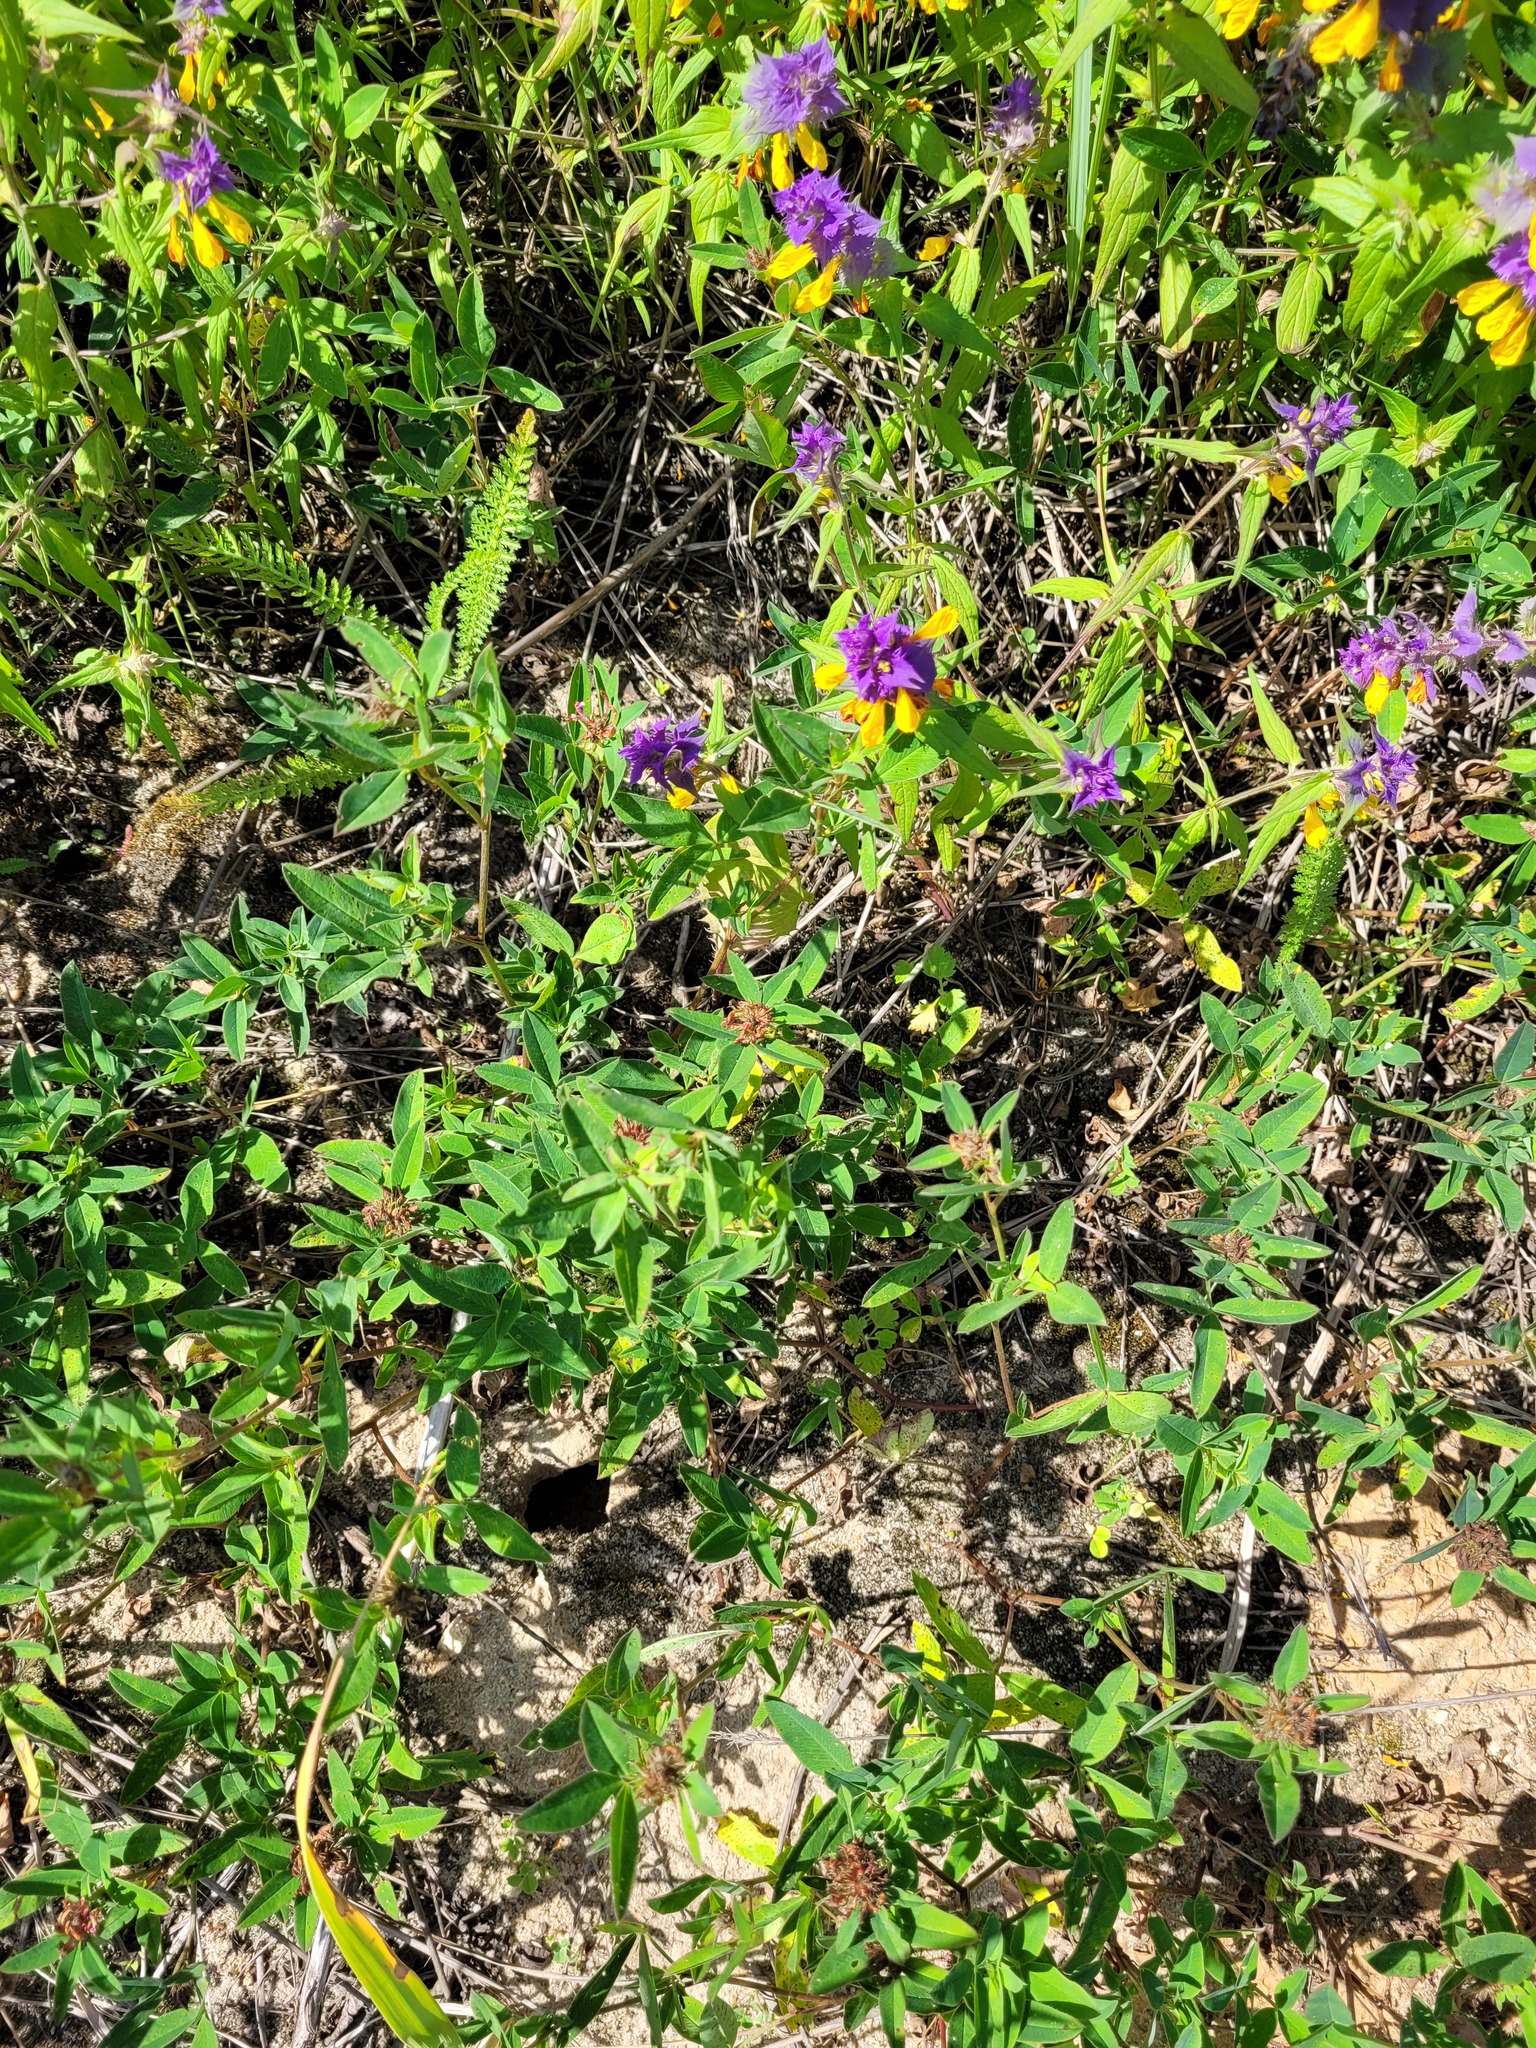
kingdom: Plantae
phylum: Tracheophyta
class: Magnoliopsida
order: Fabales
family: Fabaceae
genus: Trifolium
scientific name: Trifolium medium
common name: Zigzag clover
